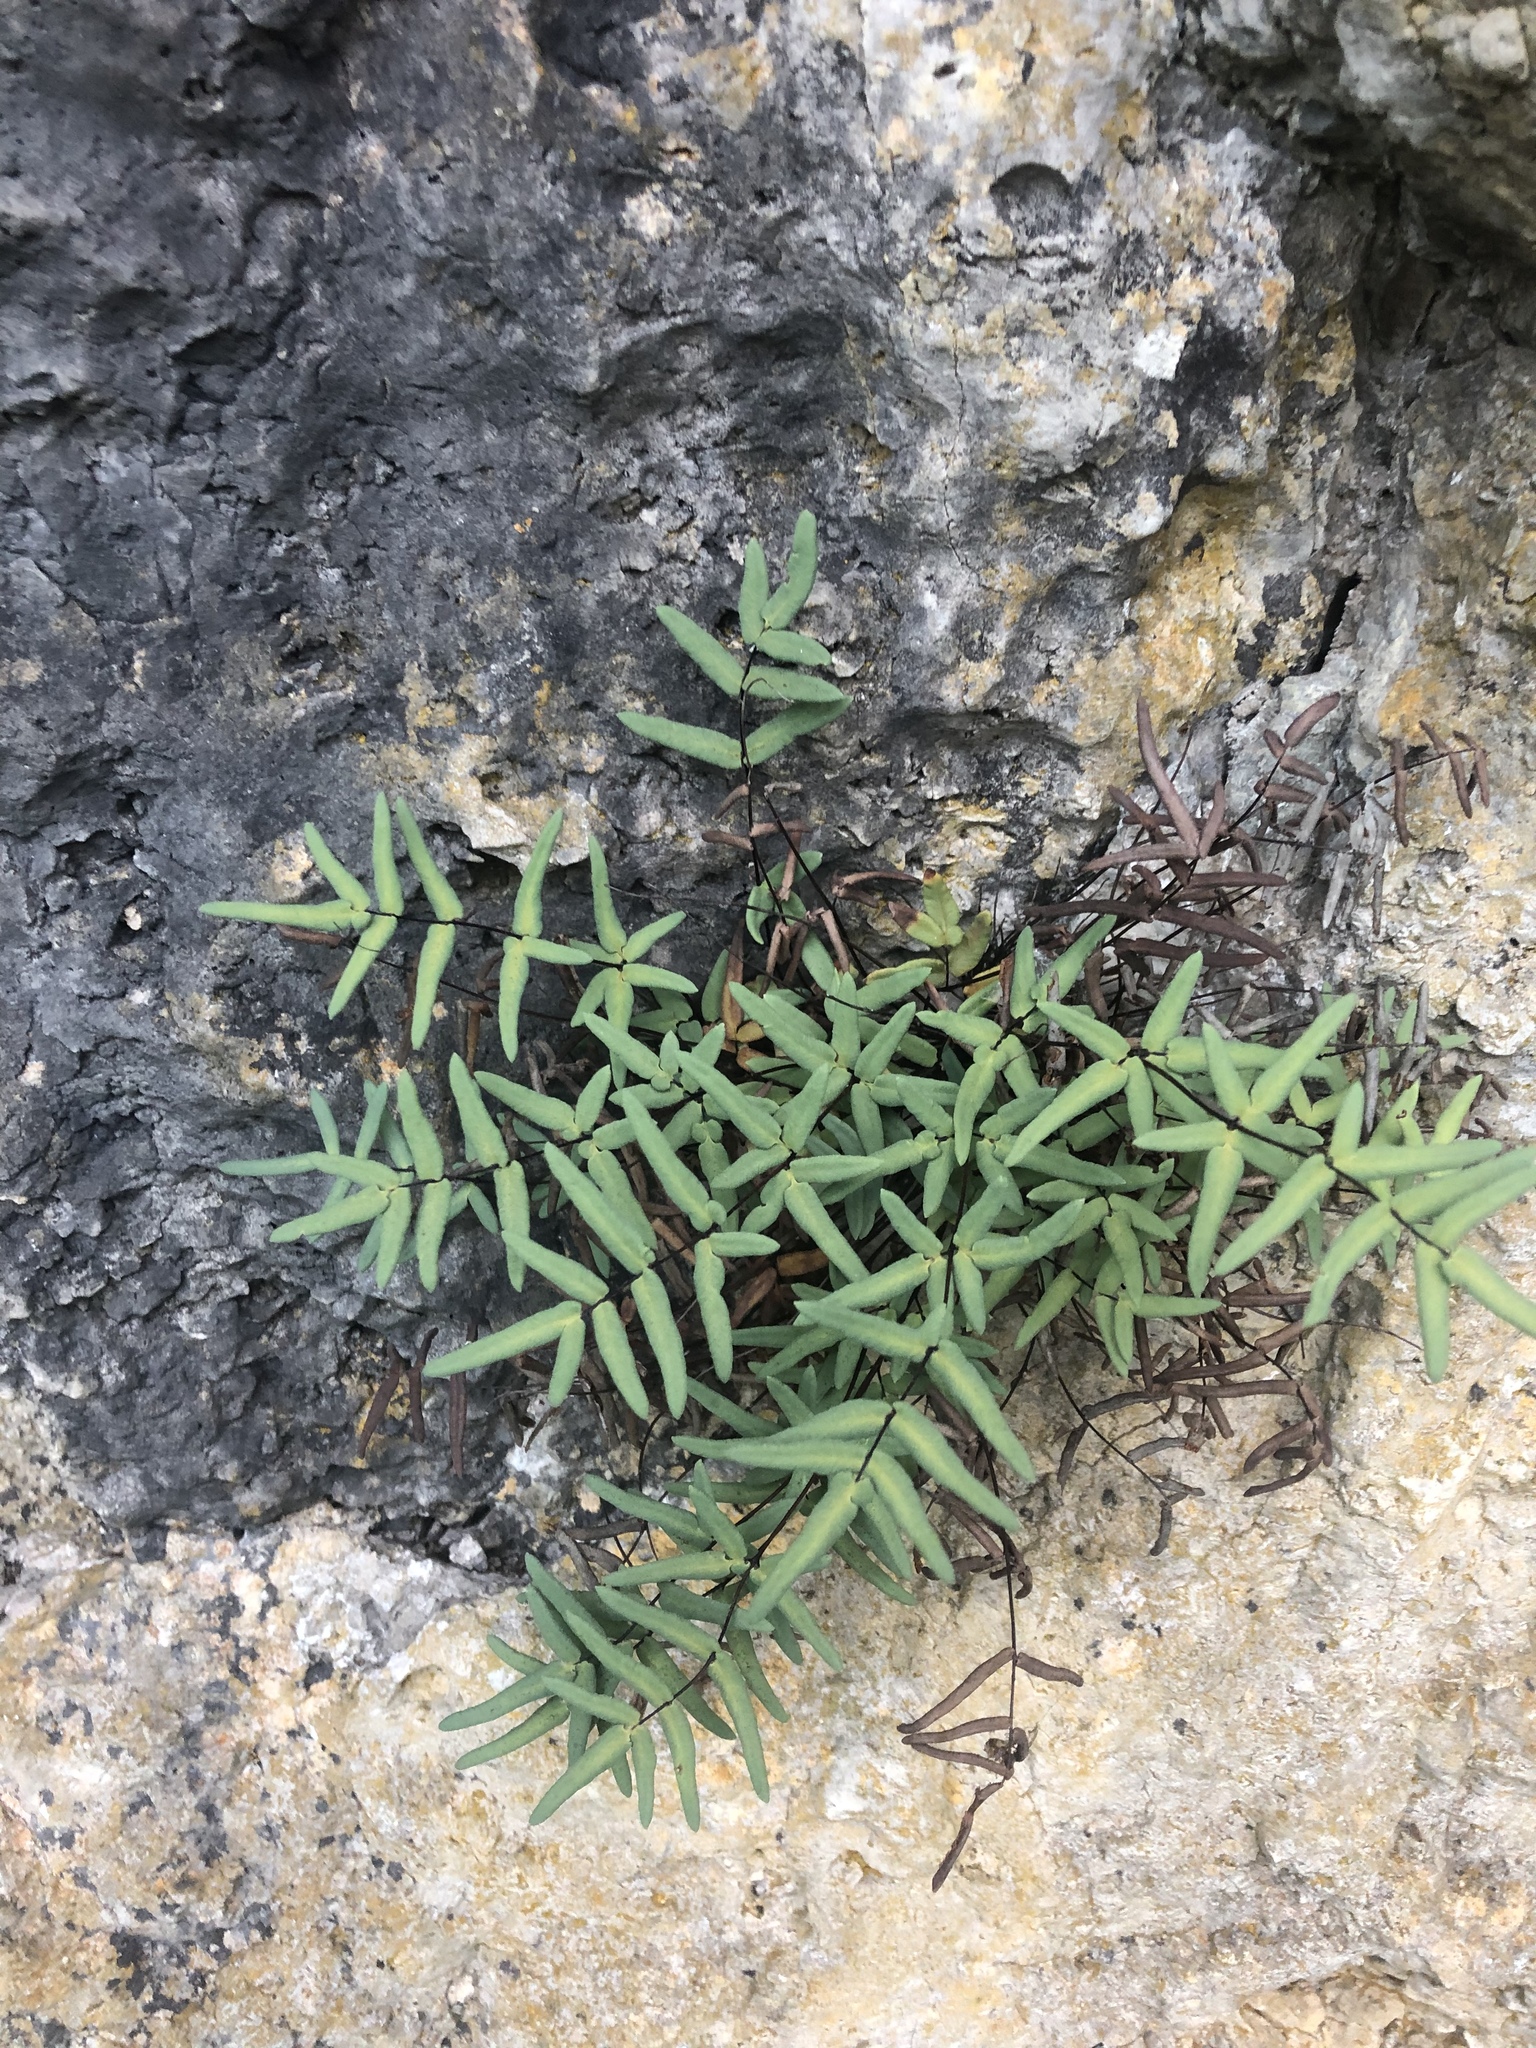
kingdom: Plantae
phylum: Tracheophyta
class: Polypodiopsida
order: Polypodiales
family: Pteridaceae
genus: Pellaea
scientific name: Pellaea glabella
